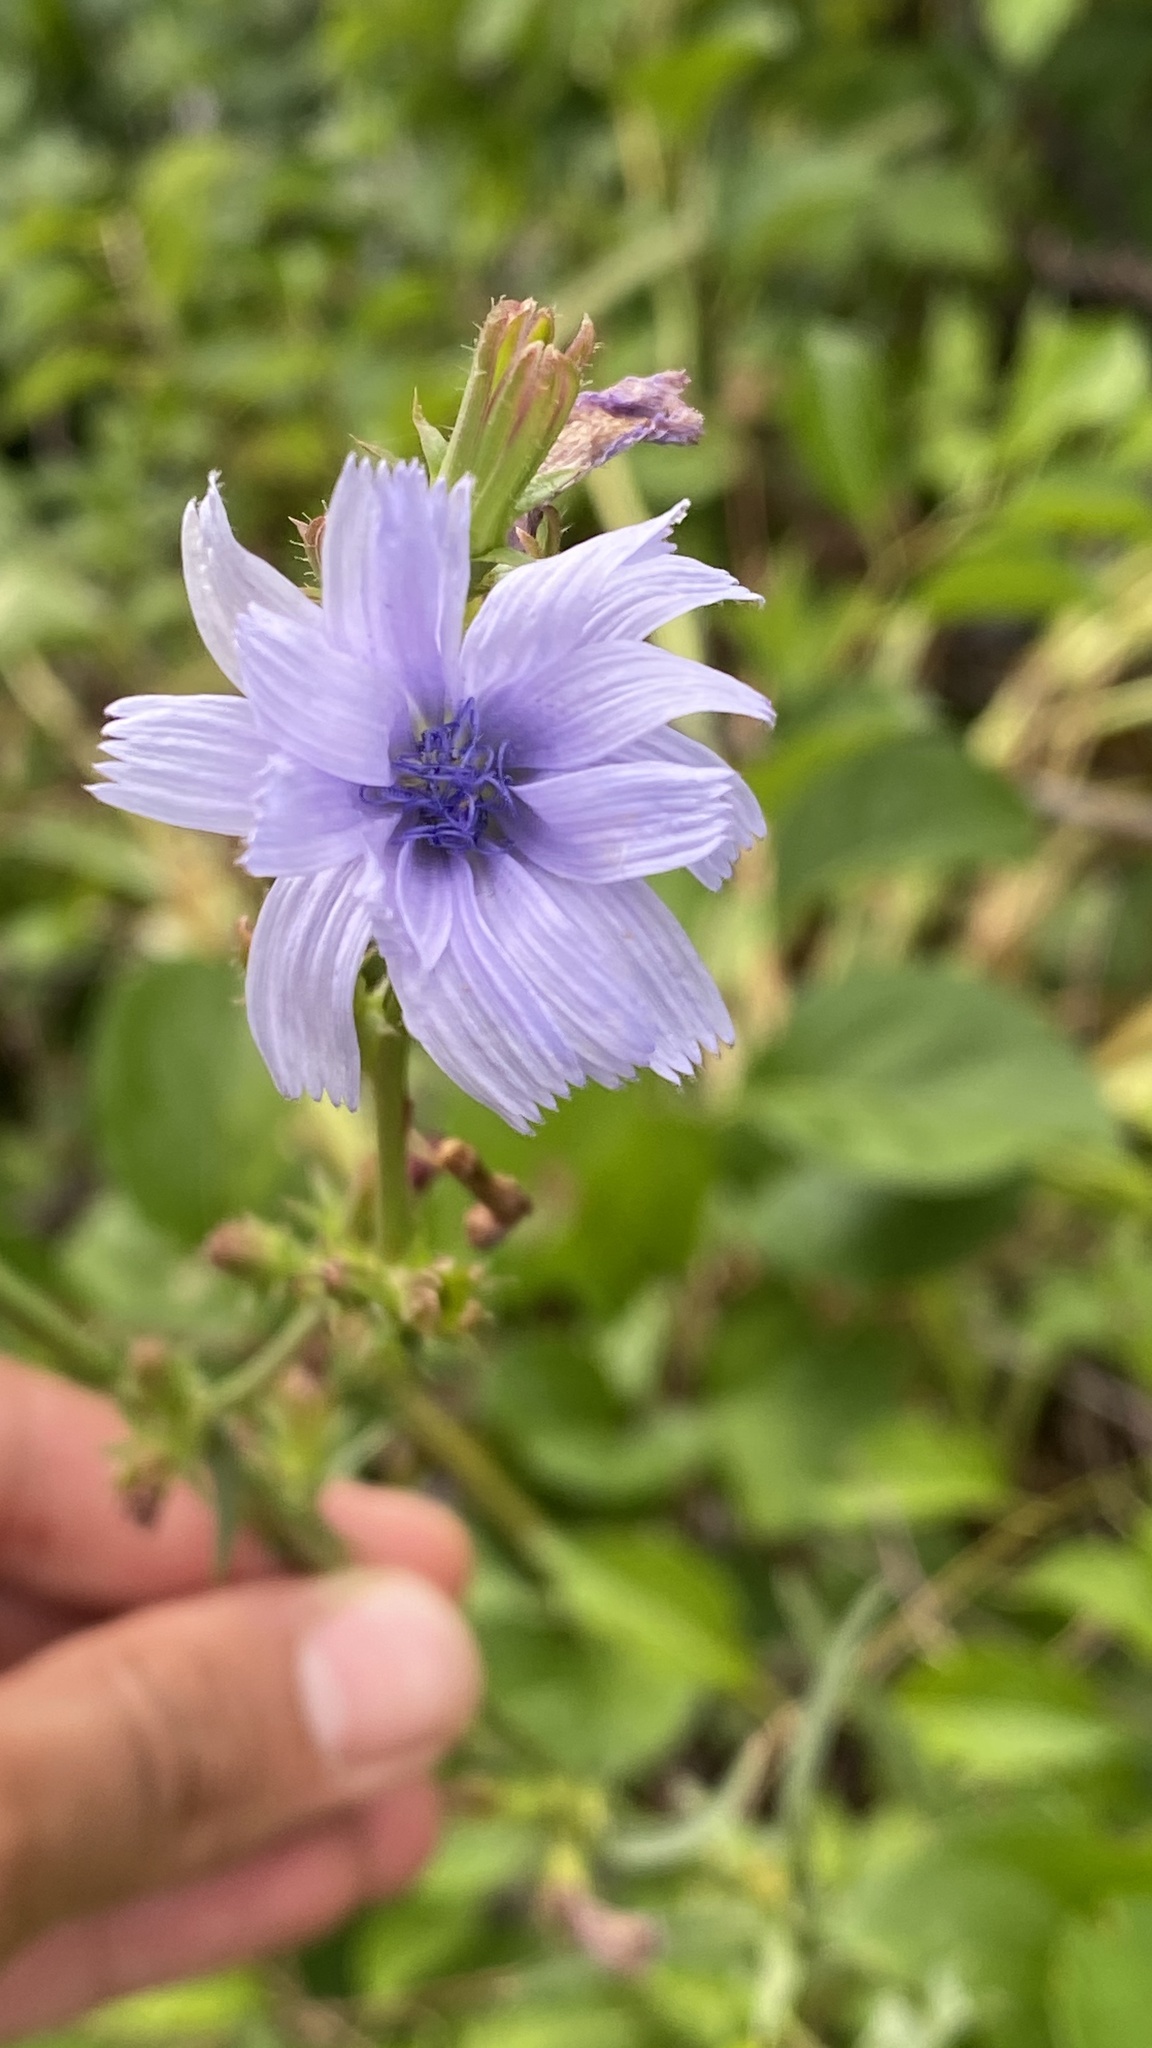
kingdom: Plantae
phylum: Tracheophyta
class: Magnoliopsida
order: Asterales
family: Asteraceae
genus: Cichorium
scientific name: Cichorium intybus
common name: Chicory
